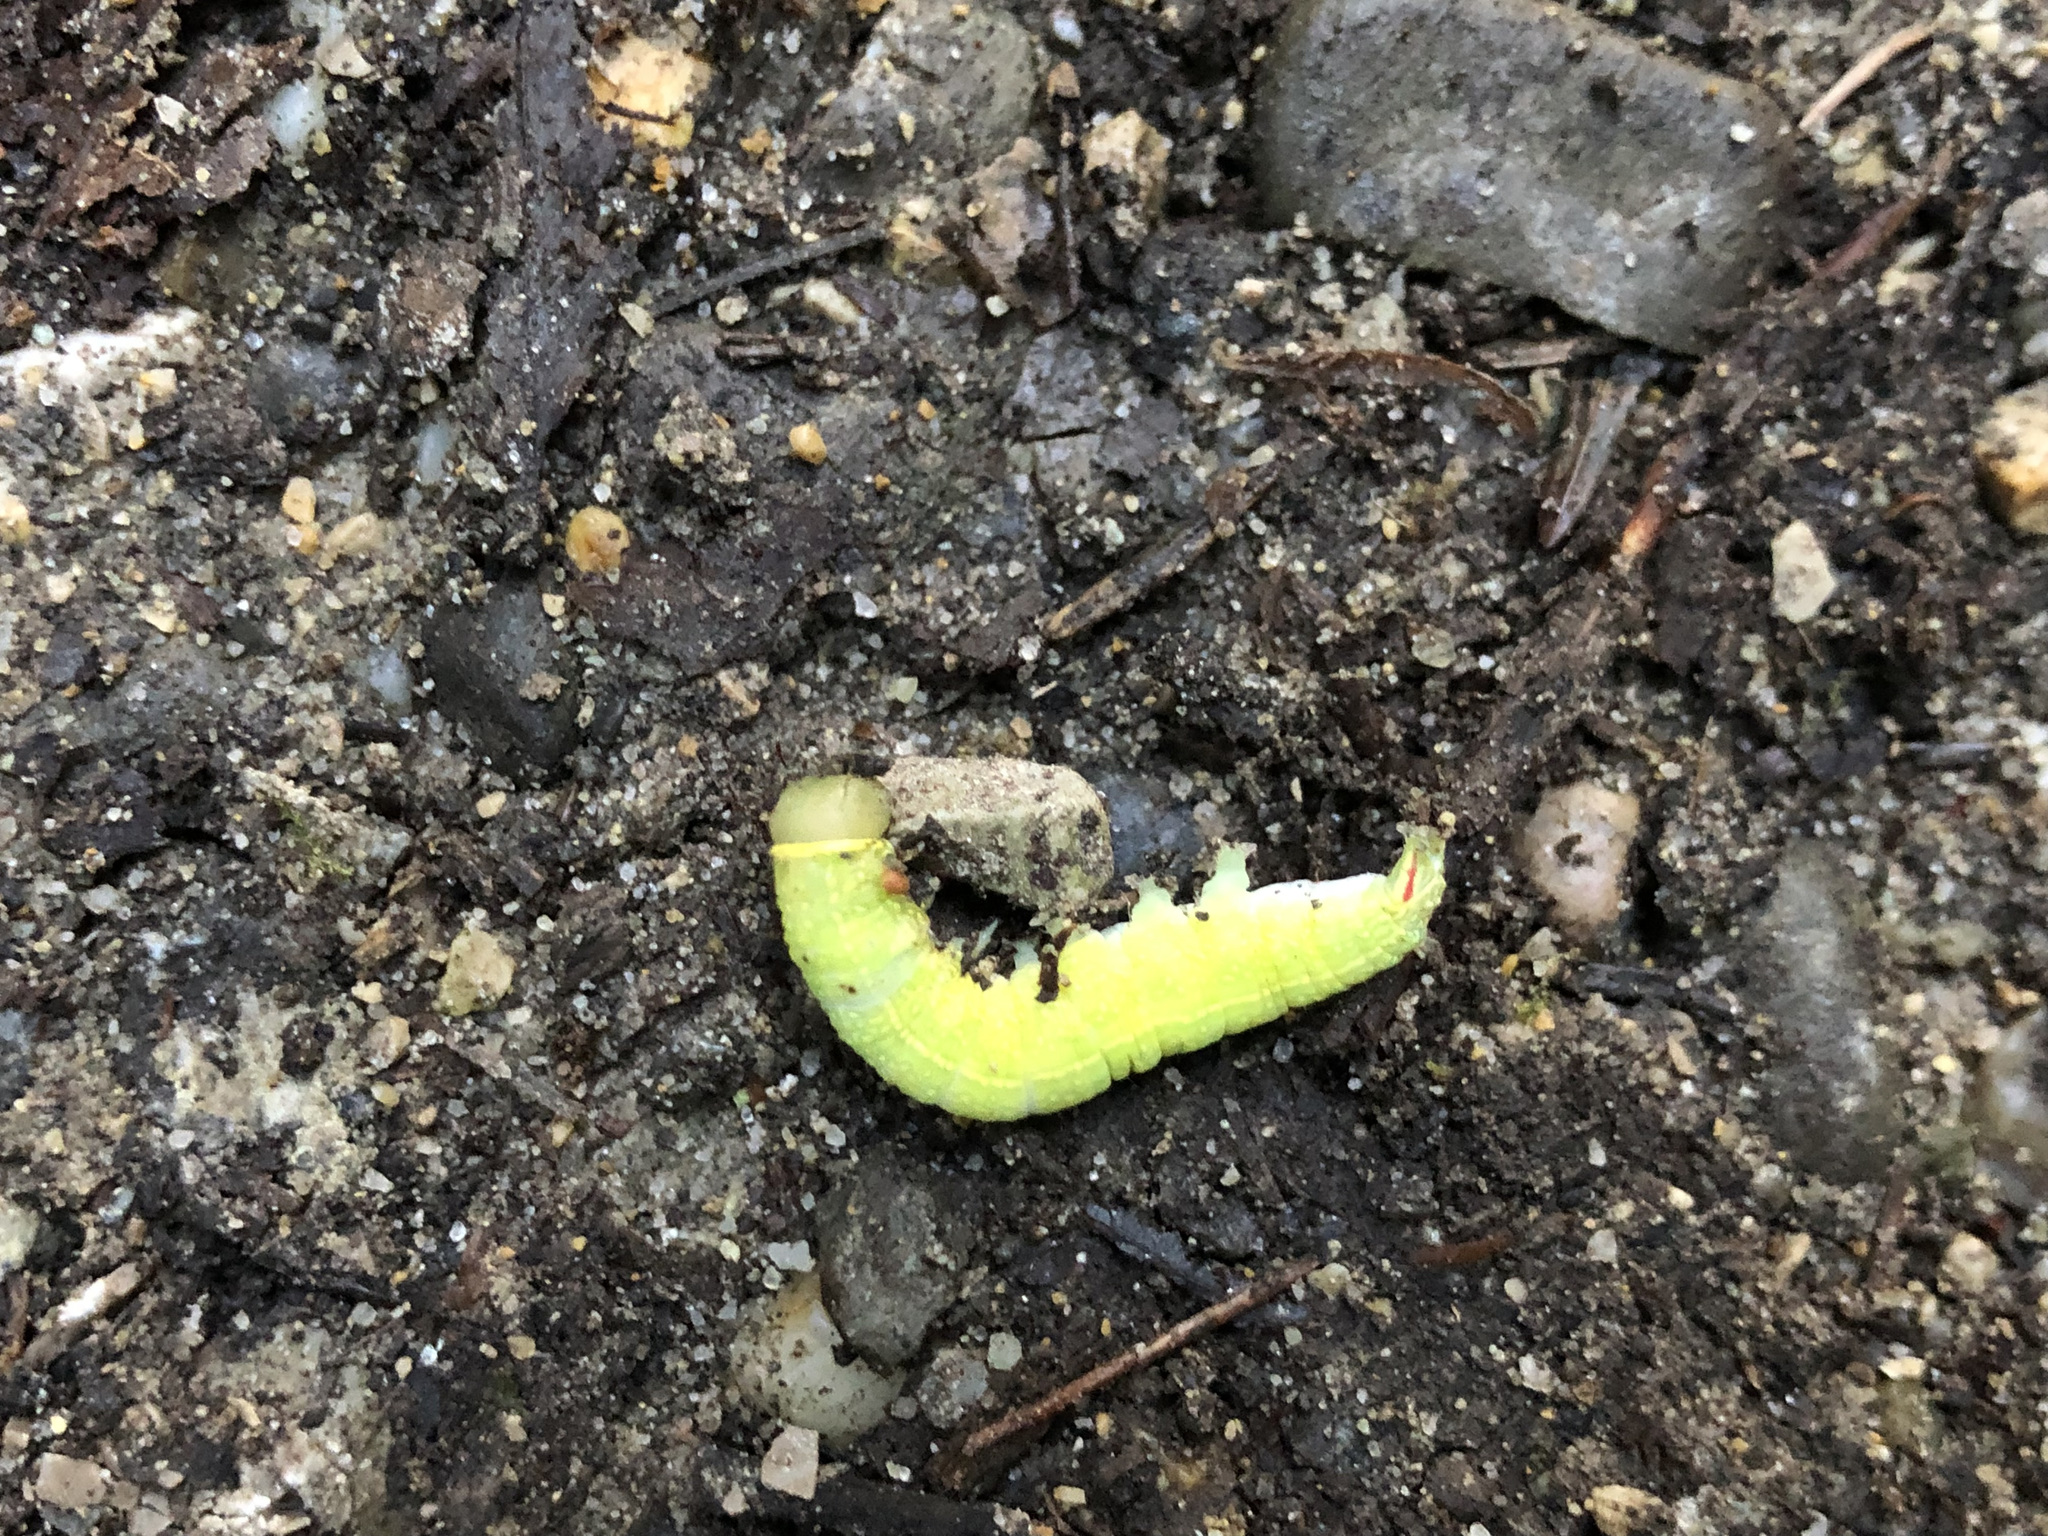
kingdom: Animalia
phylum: Arthropoda
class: Insecta
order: Lepidoptera
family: Nolidae
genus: Pseudoips
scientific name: Pseudoips prasinana
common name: Green silver-lines
